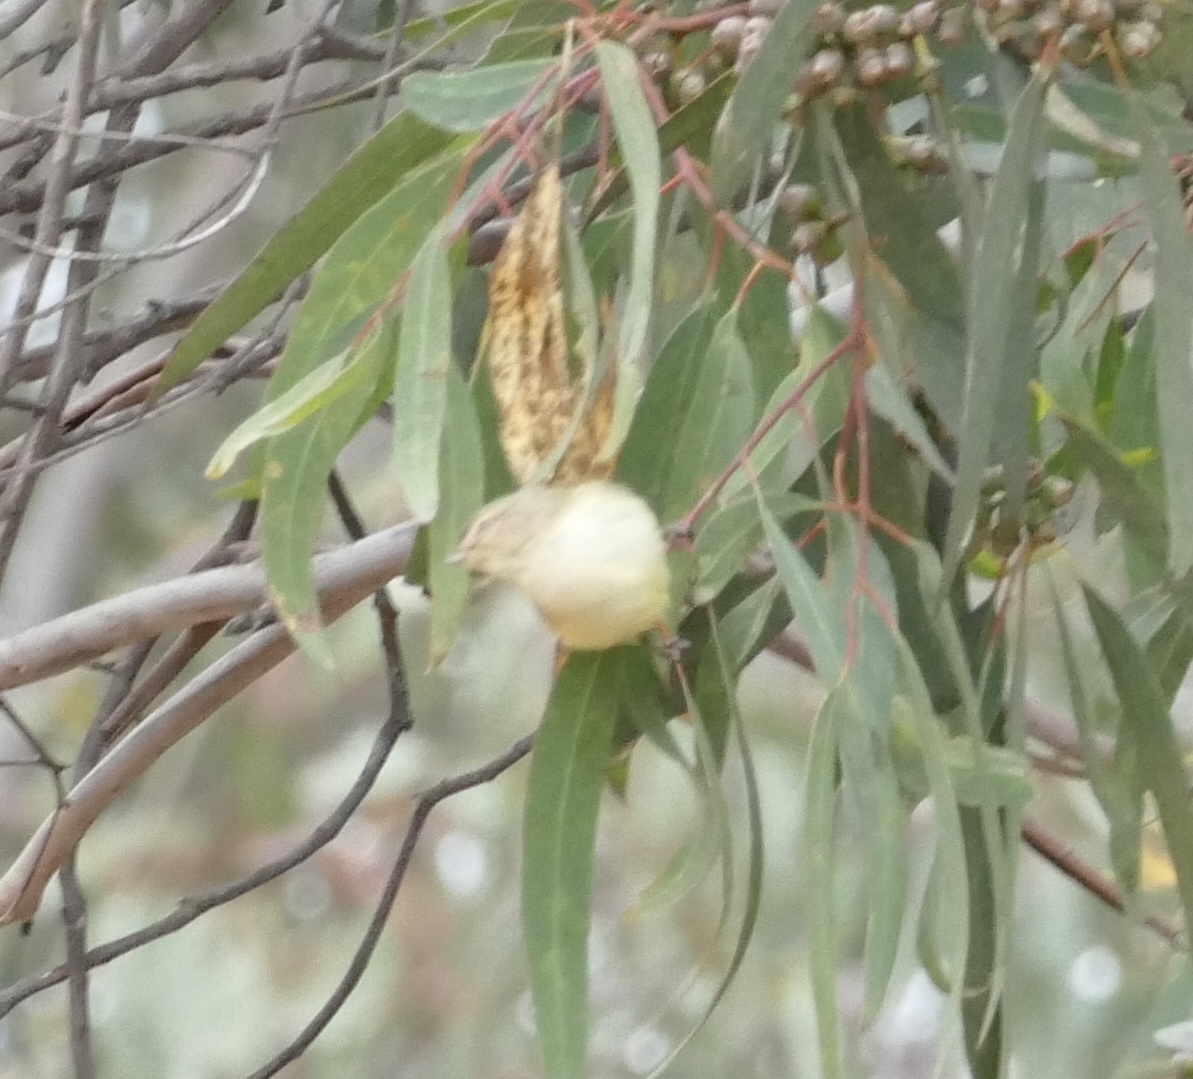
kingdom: Animalia
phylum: Chordata
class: Aves
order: Passeriformes
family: Acanthizidae
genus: Smicrornis
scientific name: Smicrornis brevirostris
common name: Weebill
